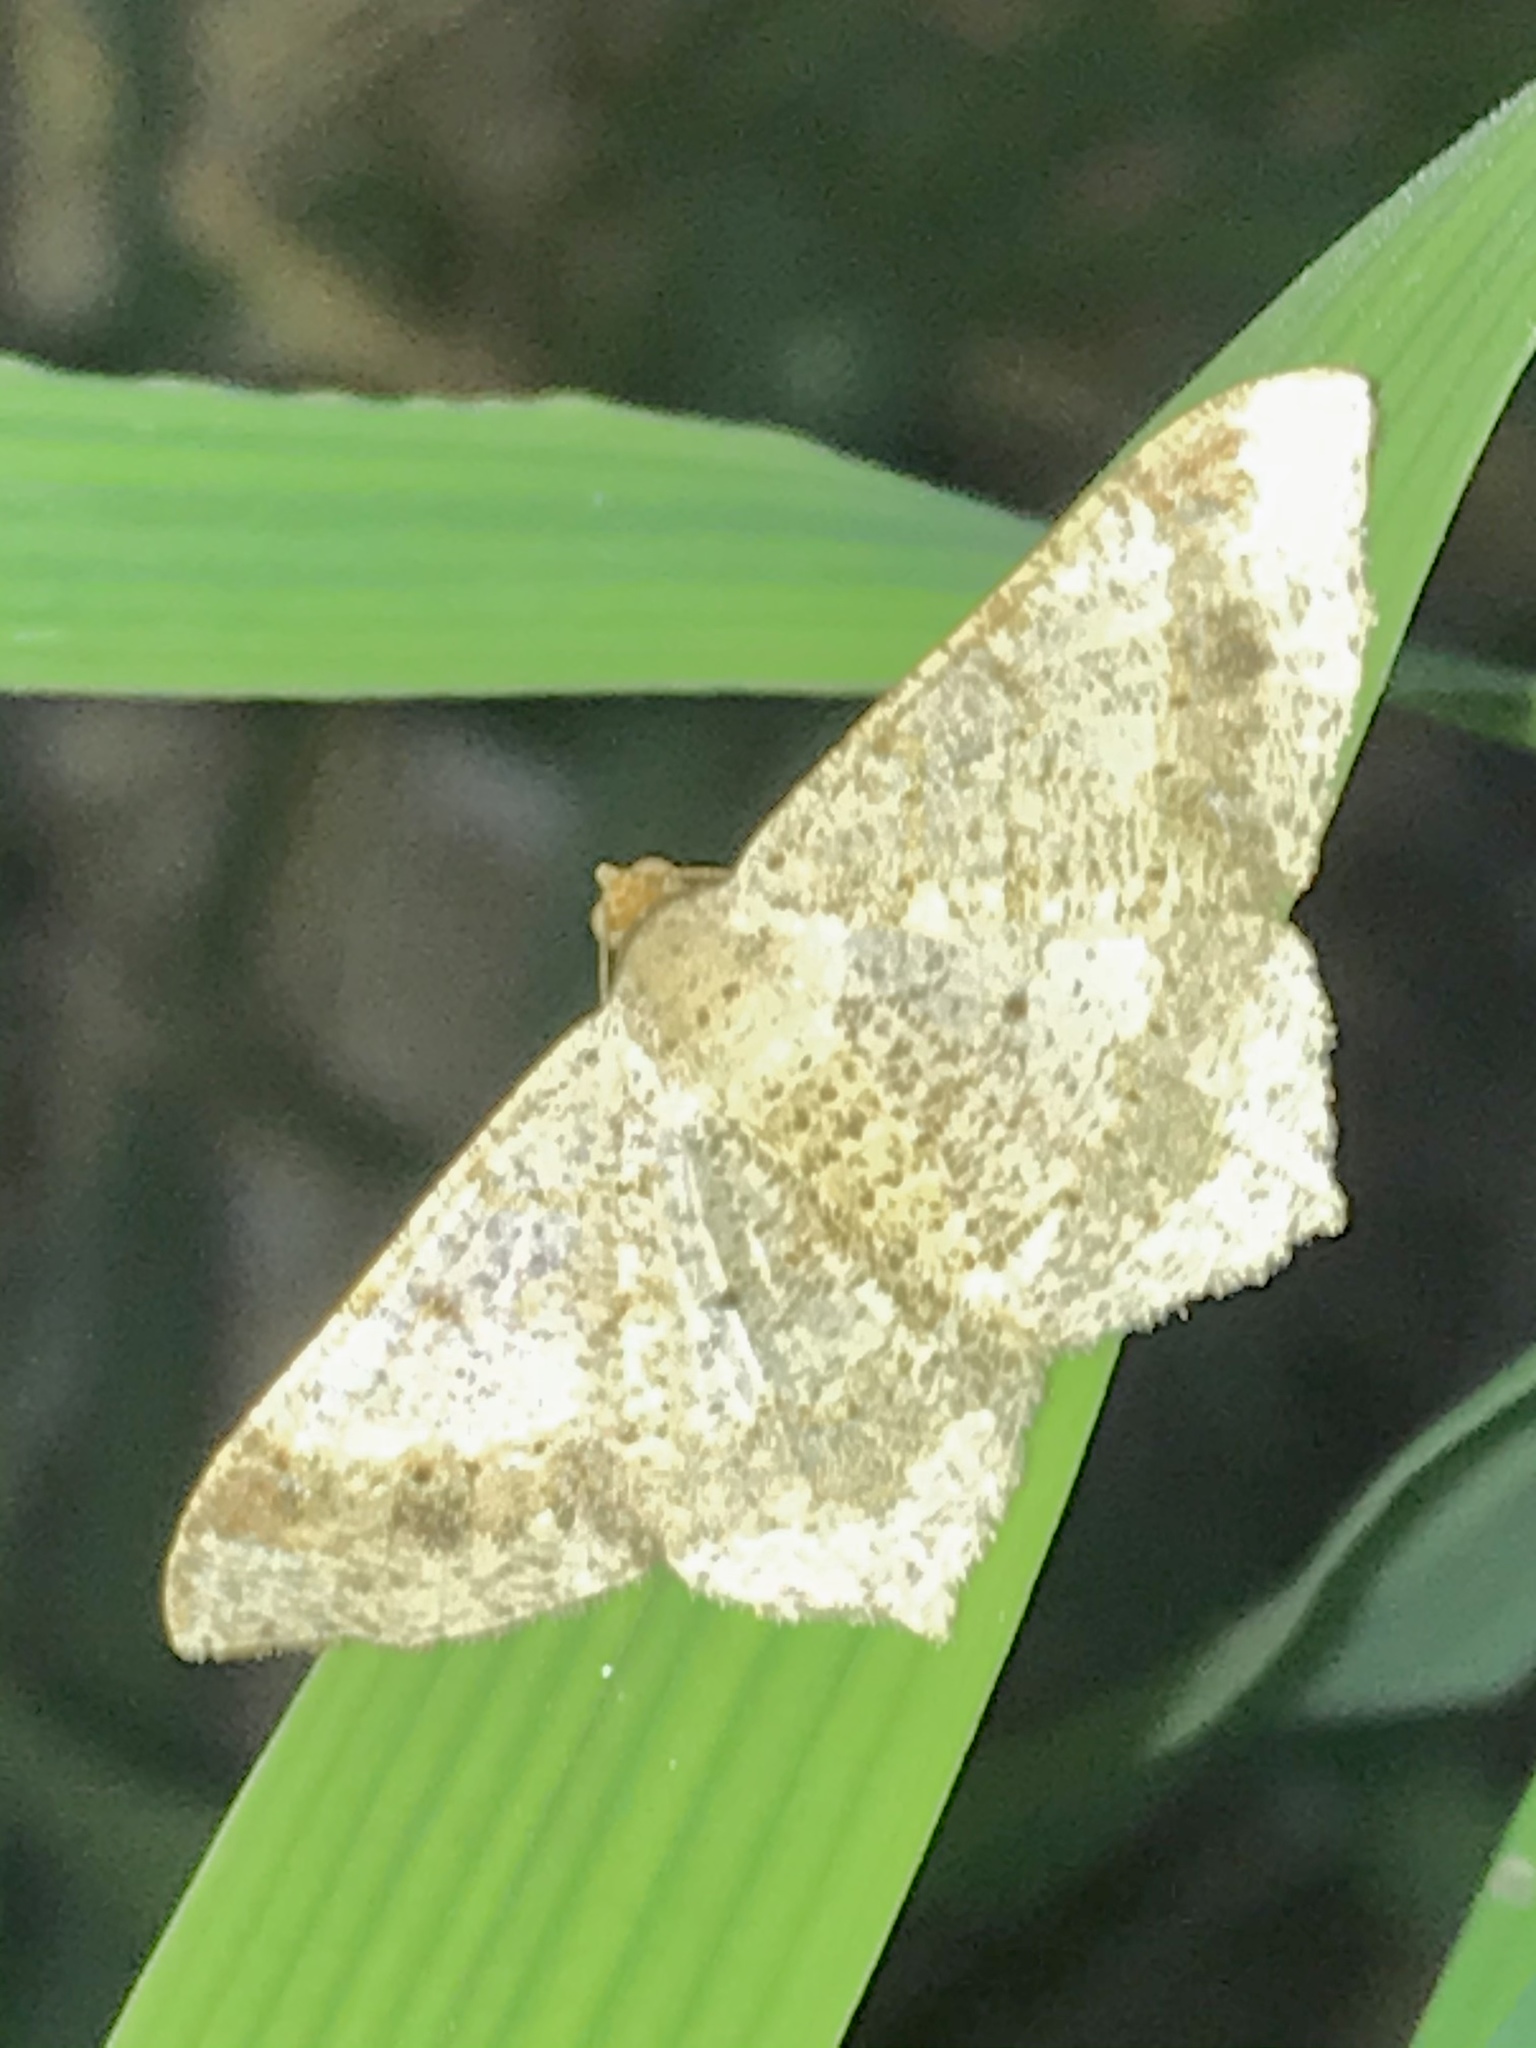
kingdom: Animalia
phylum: Arthropoda
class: Insecta
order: Lepidoptera
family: Geometridae
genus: Macaria
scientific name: Macaria abydata
